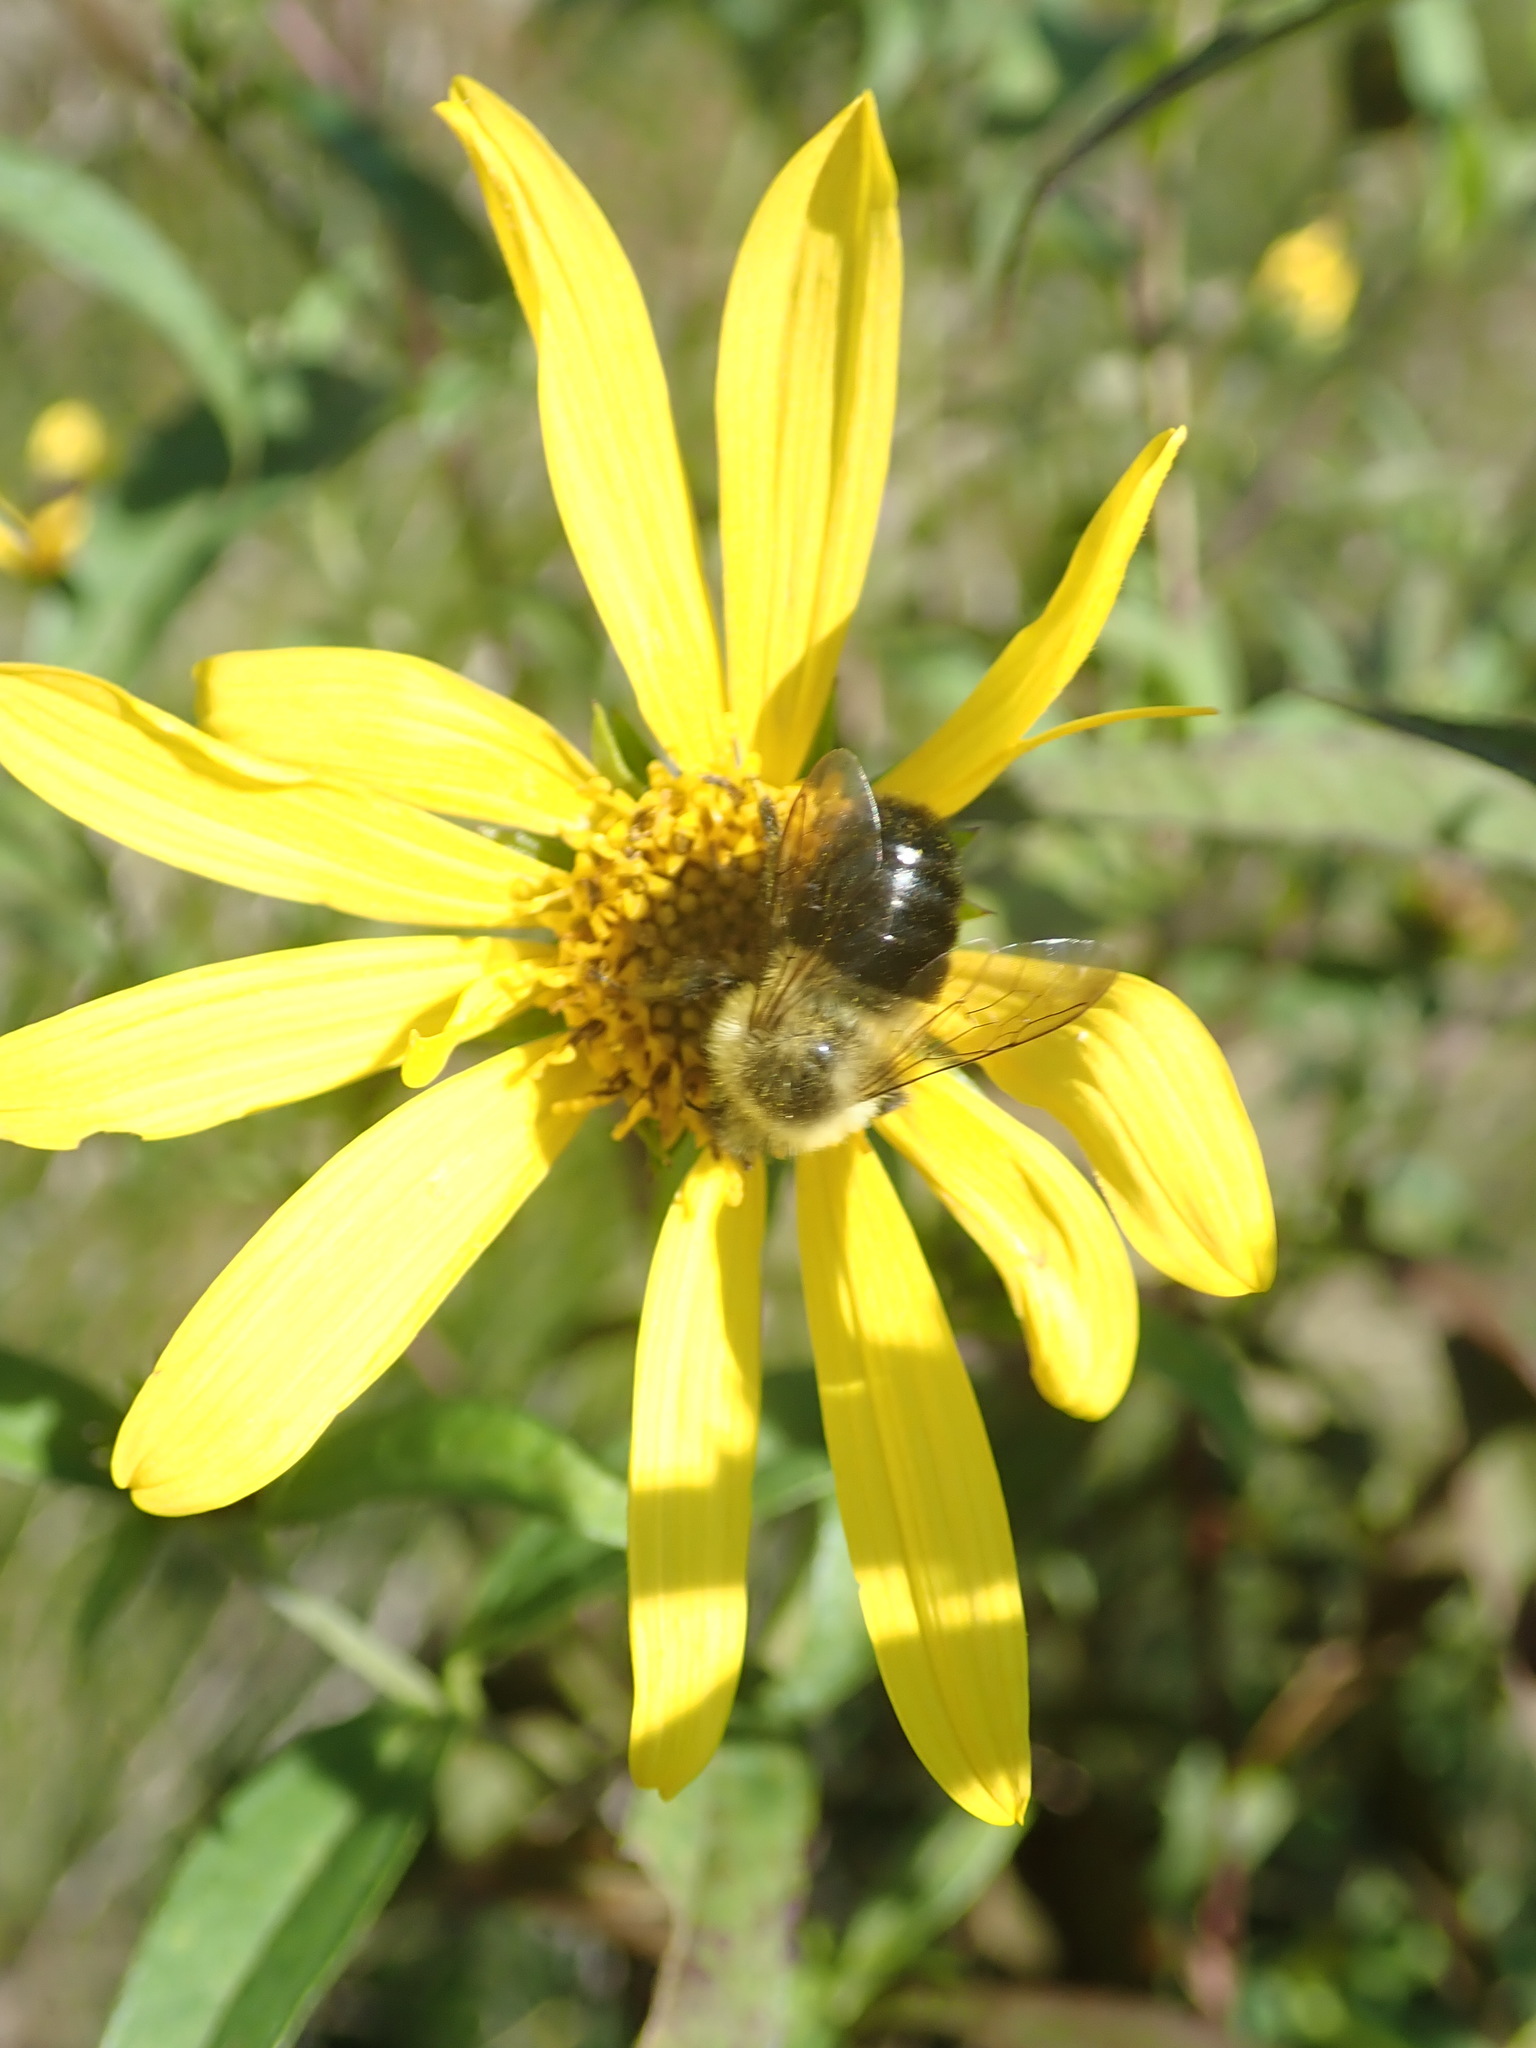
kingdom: Animalia
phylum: Arthropoda
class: Insecta
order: Hymenoptera
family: Apidae
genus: Bombus
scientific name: Bombus impatiens
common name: Common eastern bumble bee
